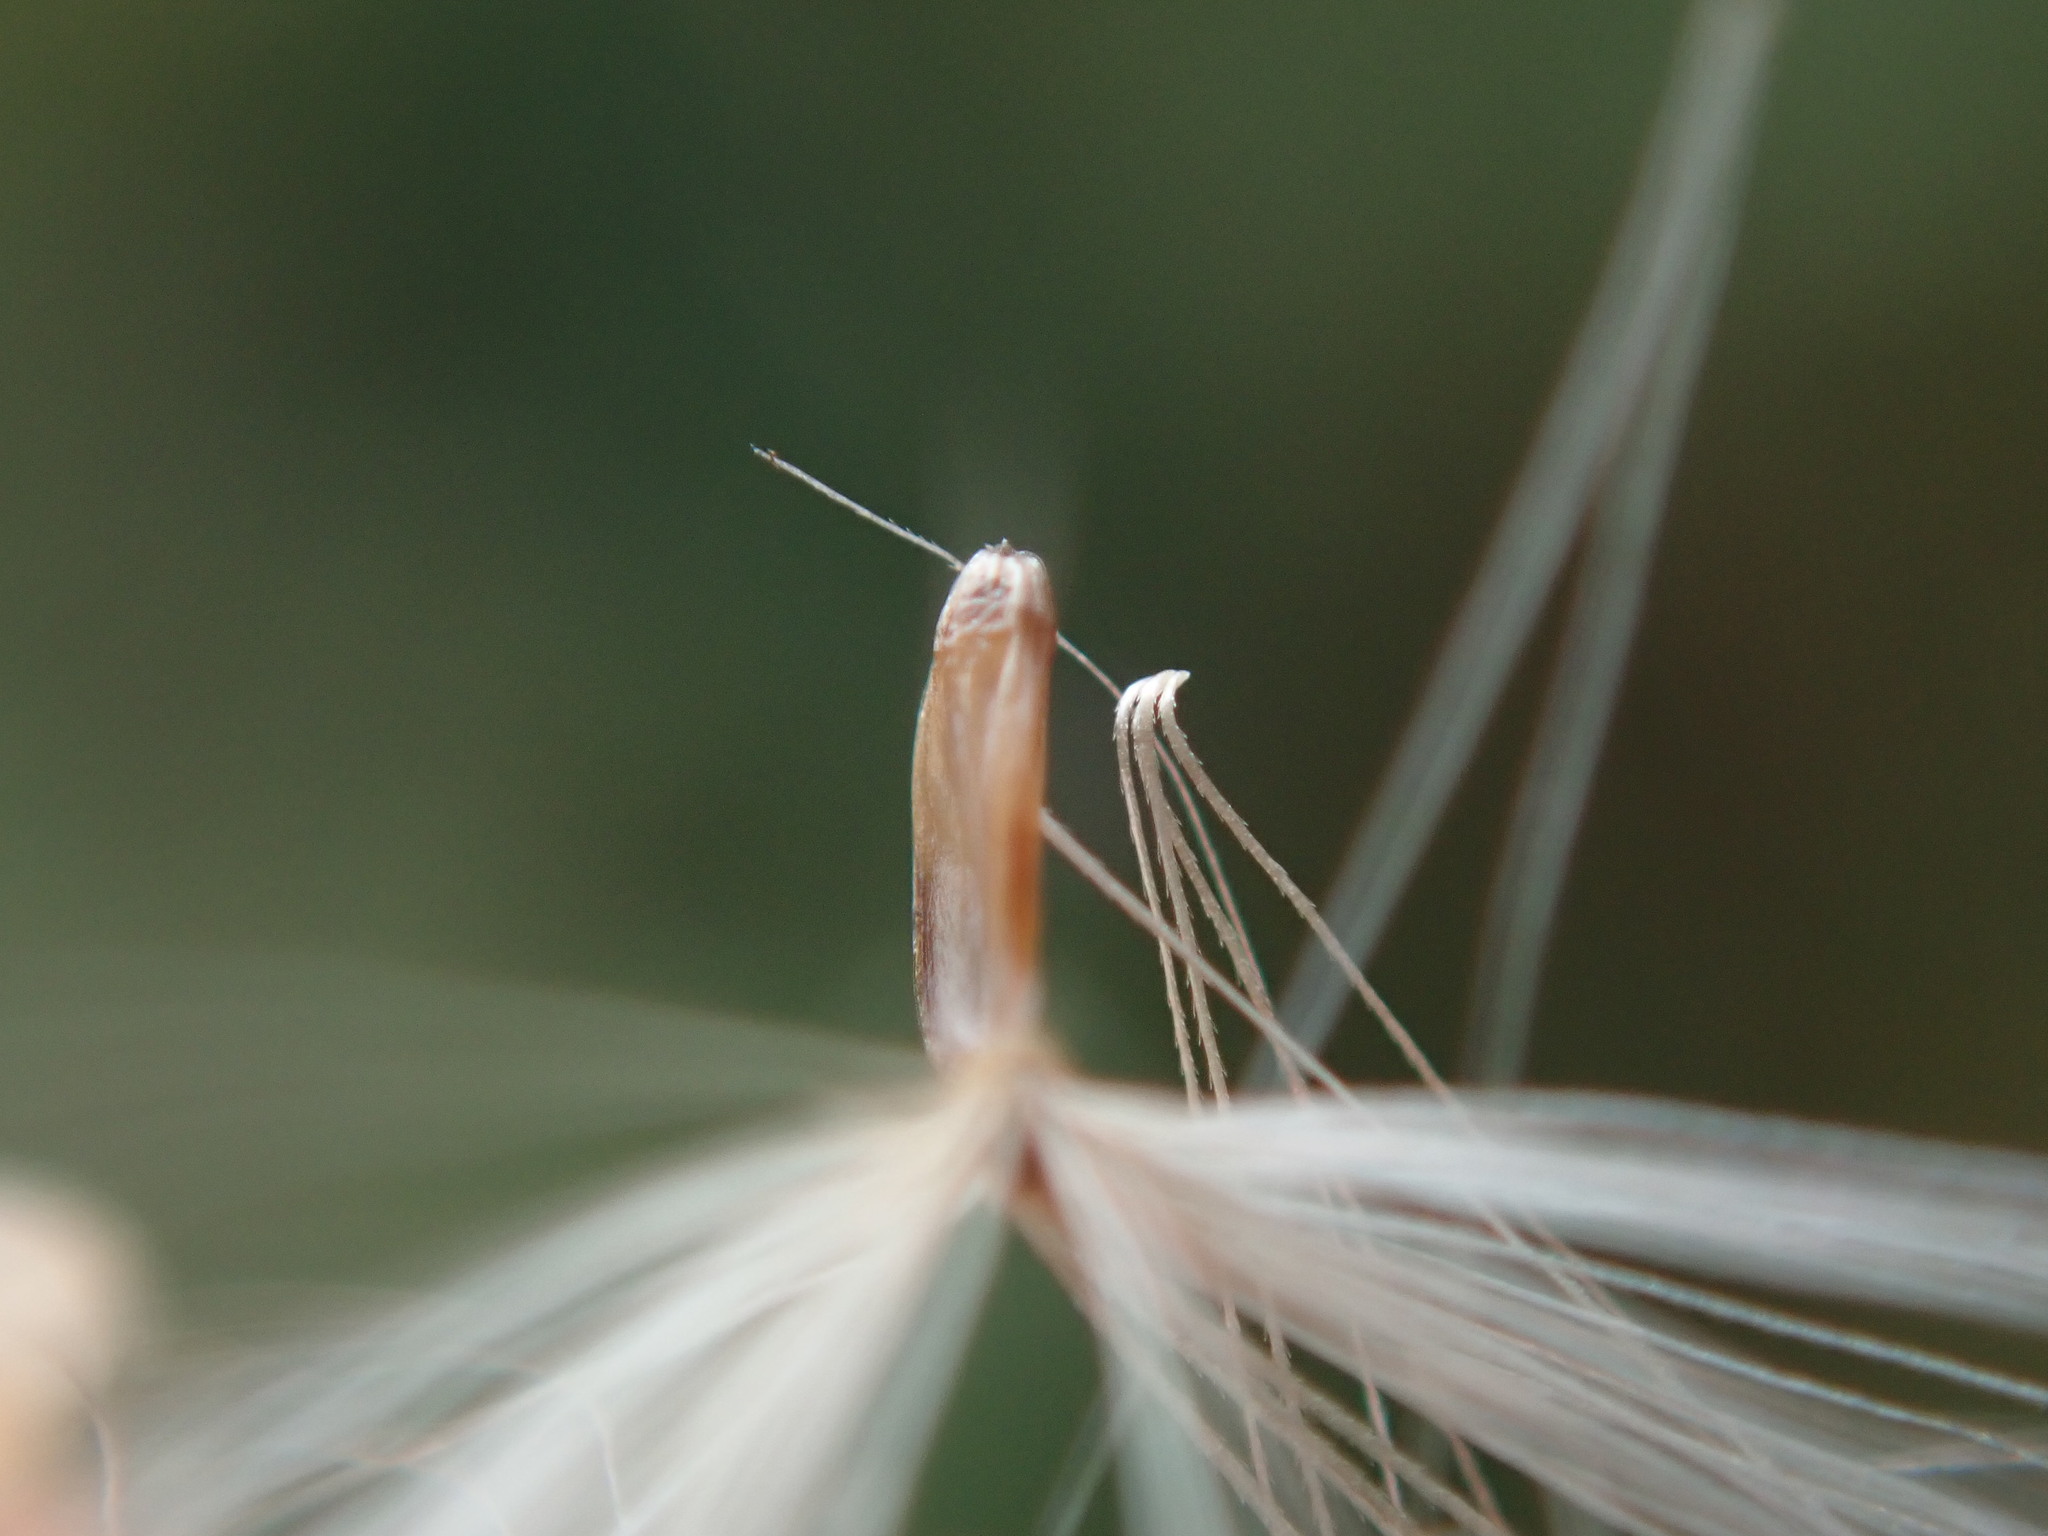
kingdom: Plantae
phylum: Tracheophyta
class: Magnoliopsida
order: Asterales
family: Asteraceae
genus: Carduus
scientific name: Carduus crispus
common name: Welted thistle
